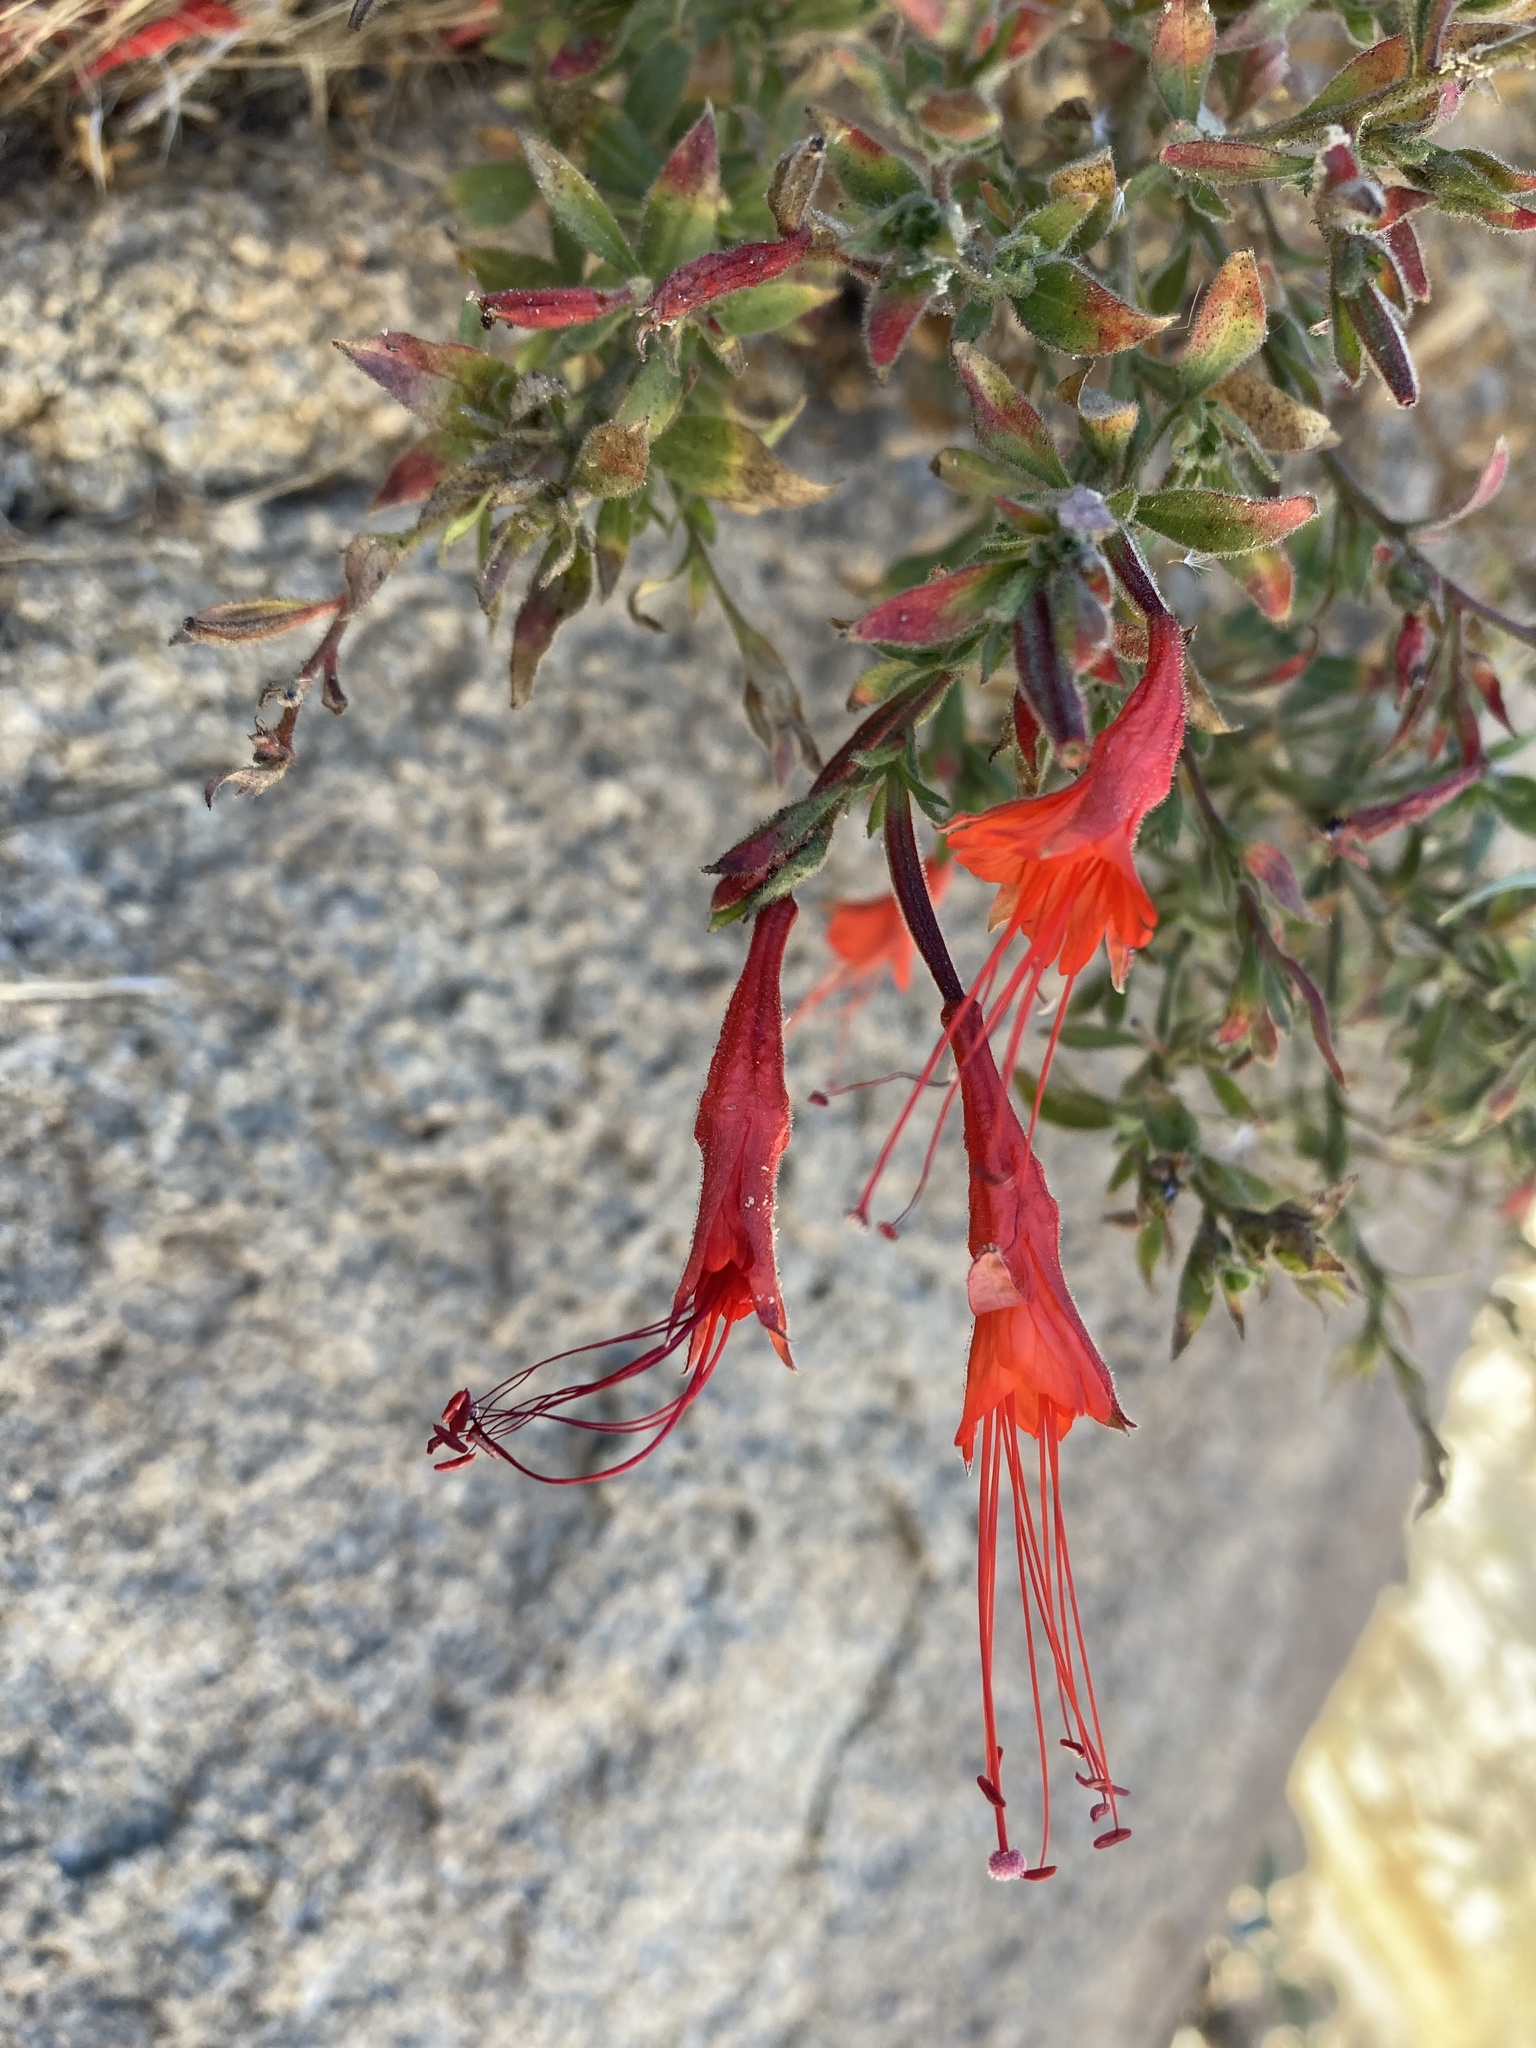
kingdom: Plantae
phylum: Tracheophyta
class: Magnoliopsida
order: Myrtales
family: Onagraceae
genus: Epilobium
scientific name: Epilobium canum
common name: California-fuchsia
